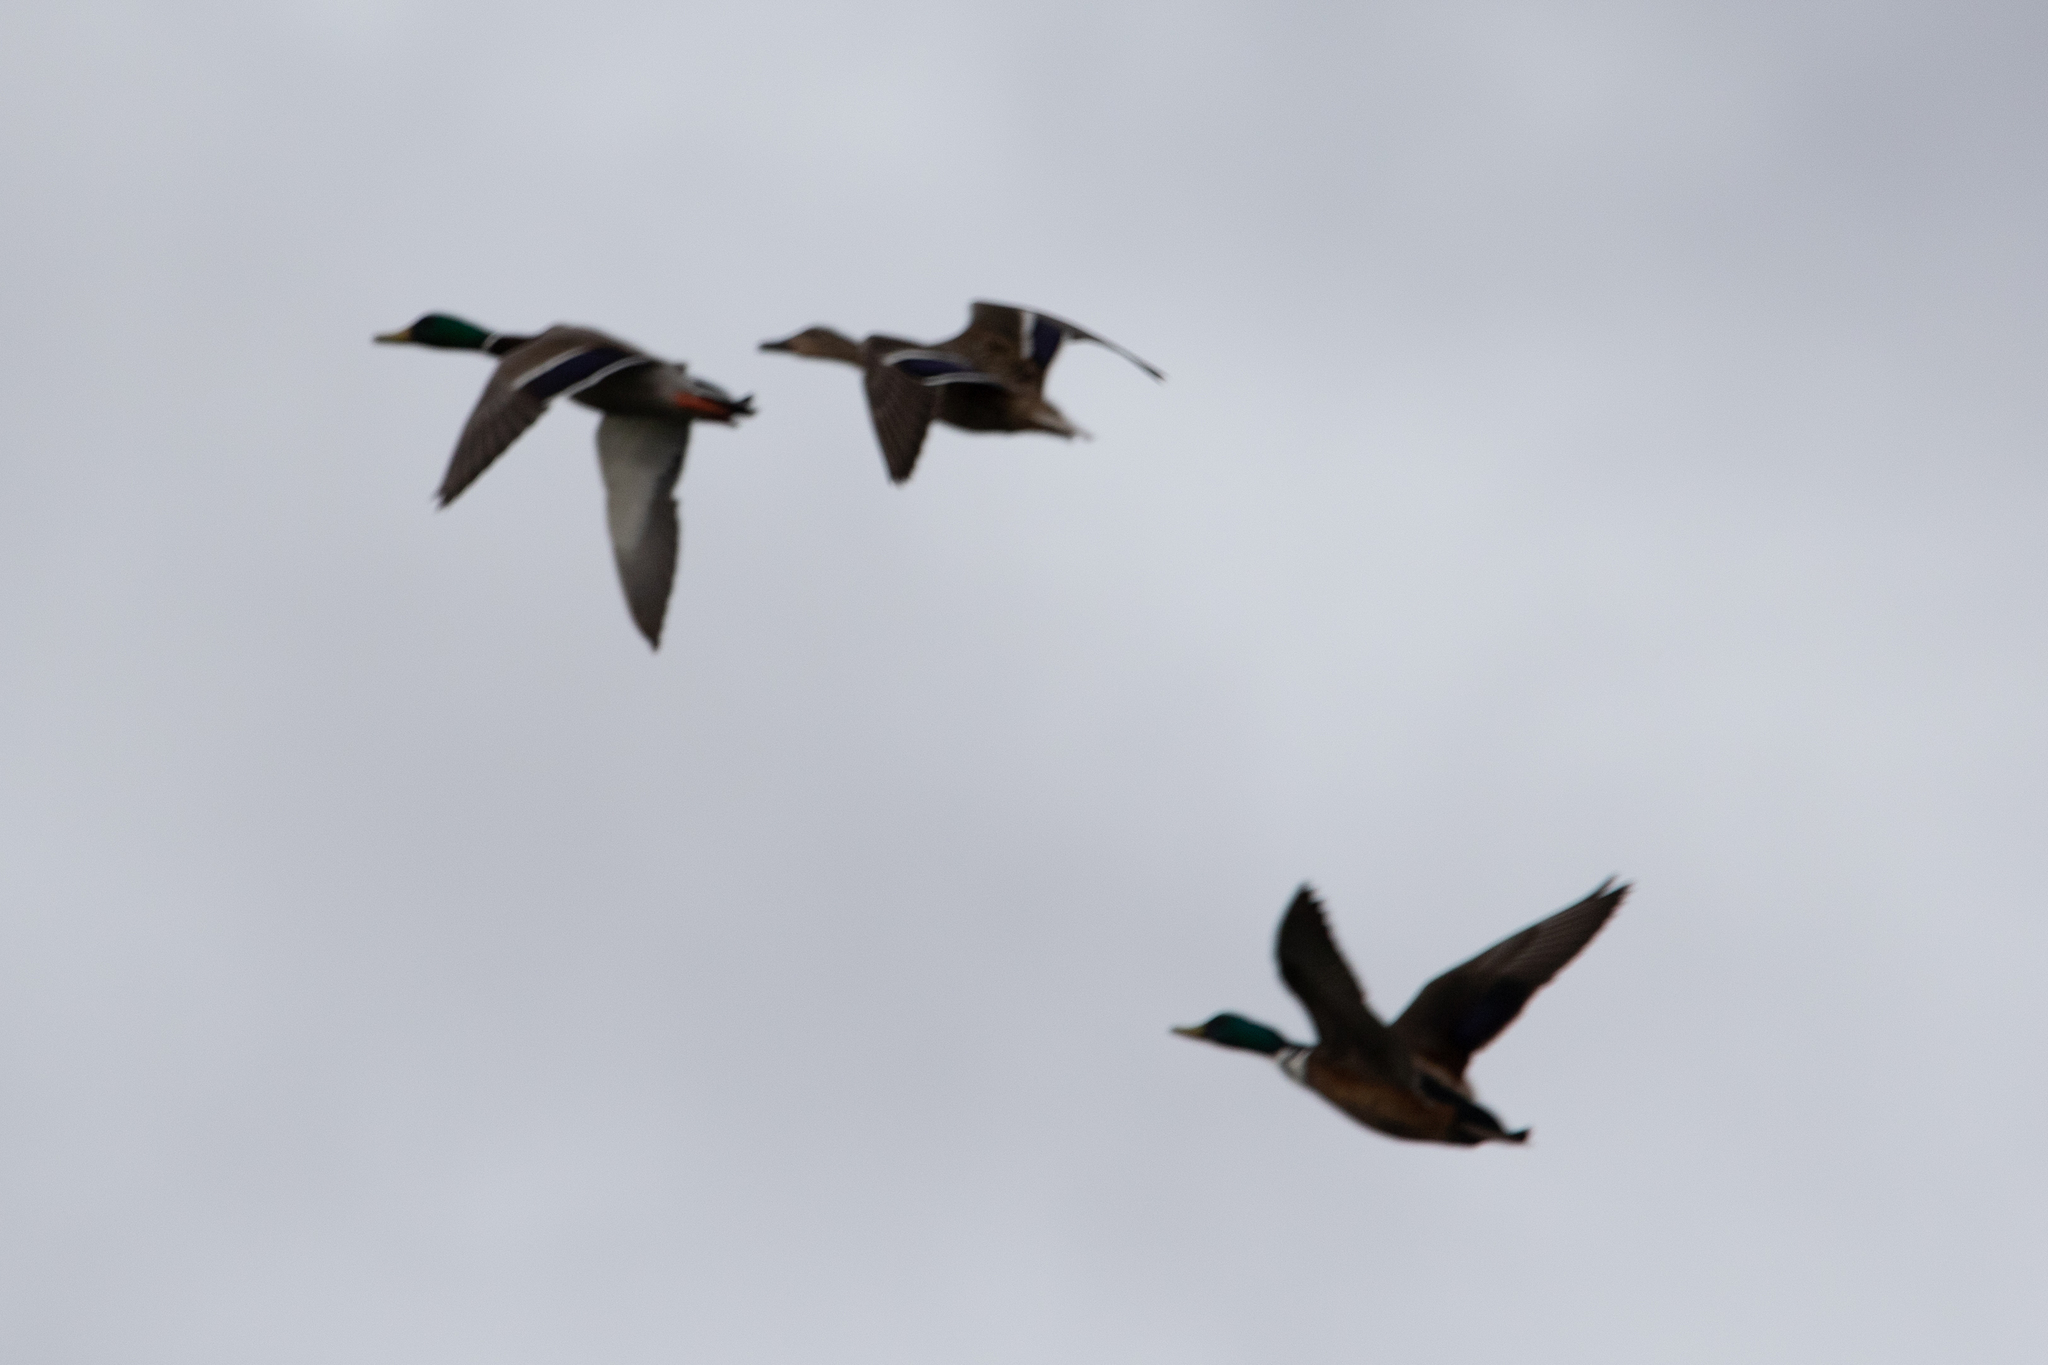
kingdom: Animalia
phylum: Chordata
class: Aves
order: Anseriformes
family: Anatidae
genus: Anas
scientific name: Anas platyrhynchos
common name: Mallard
